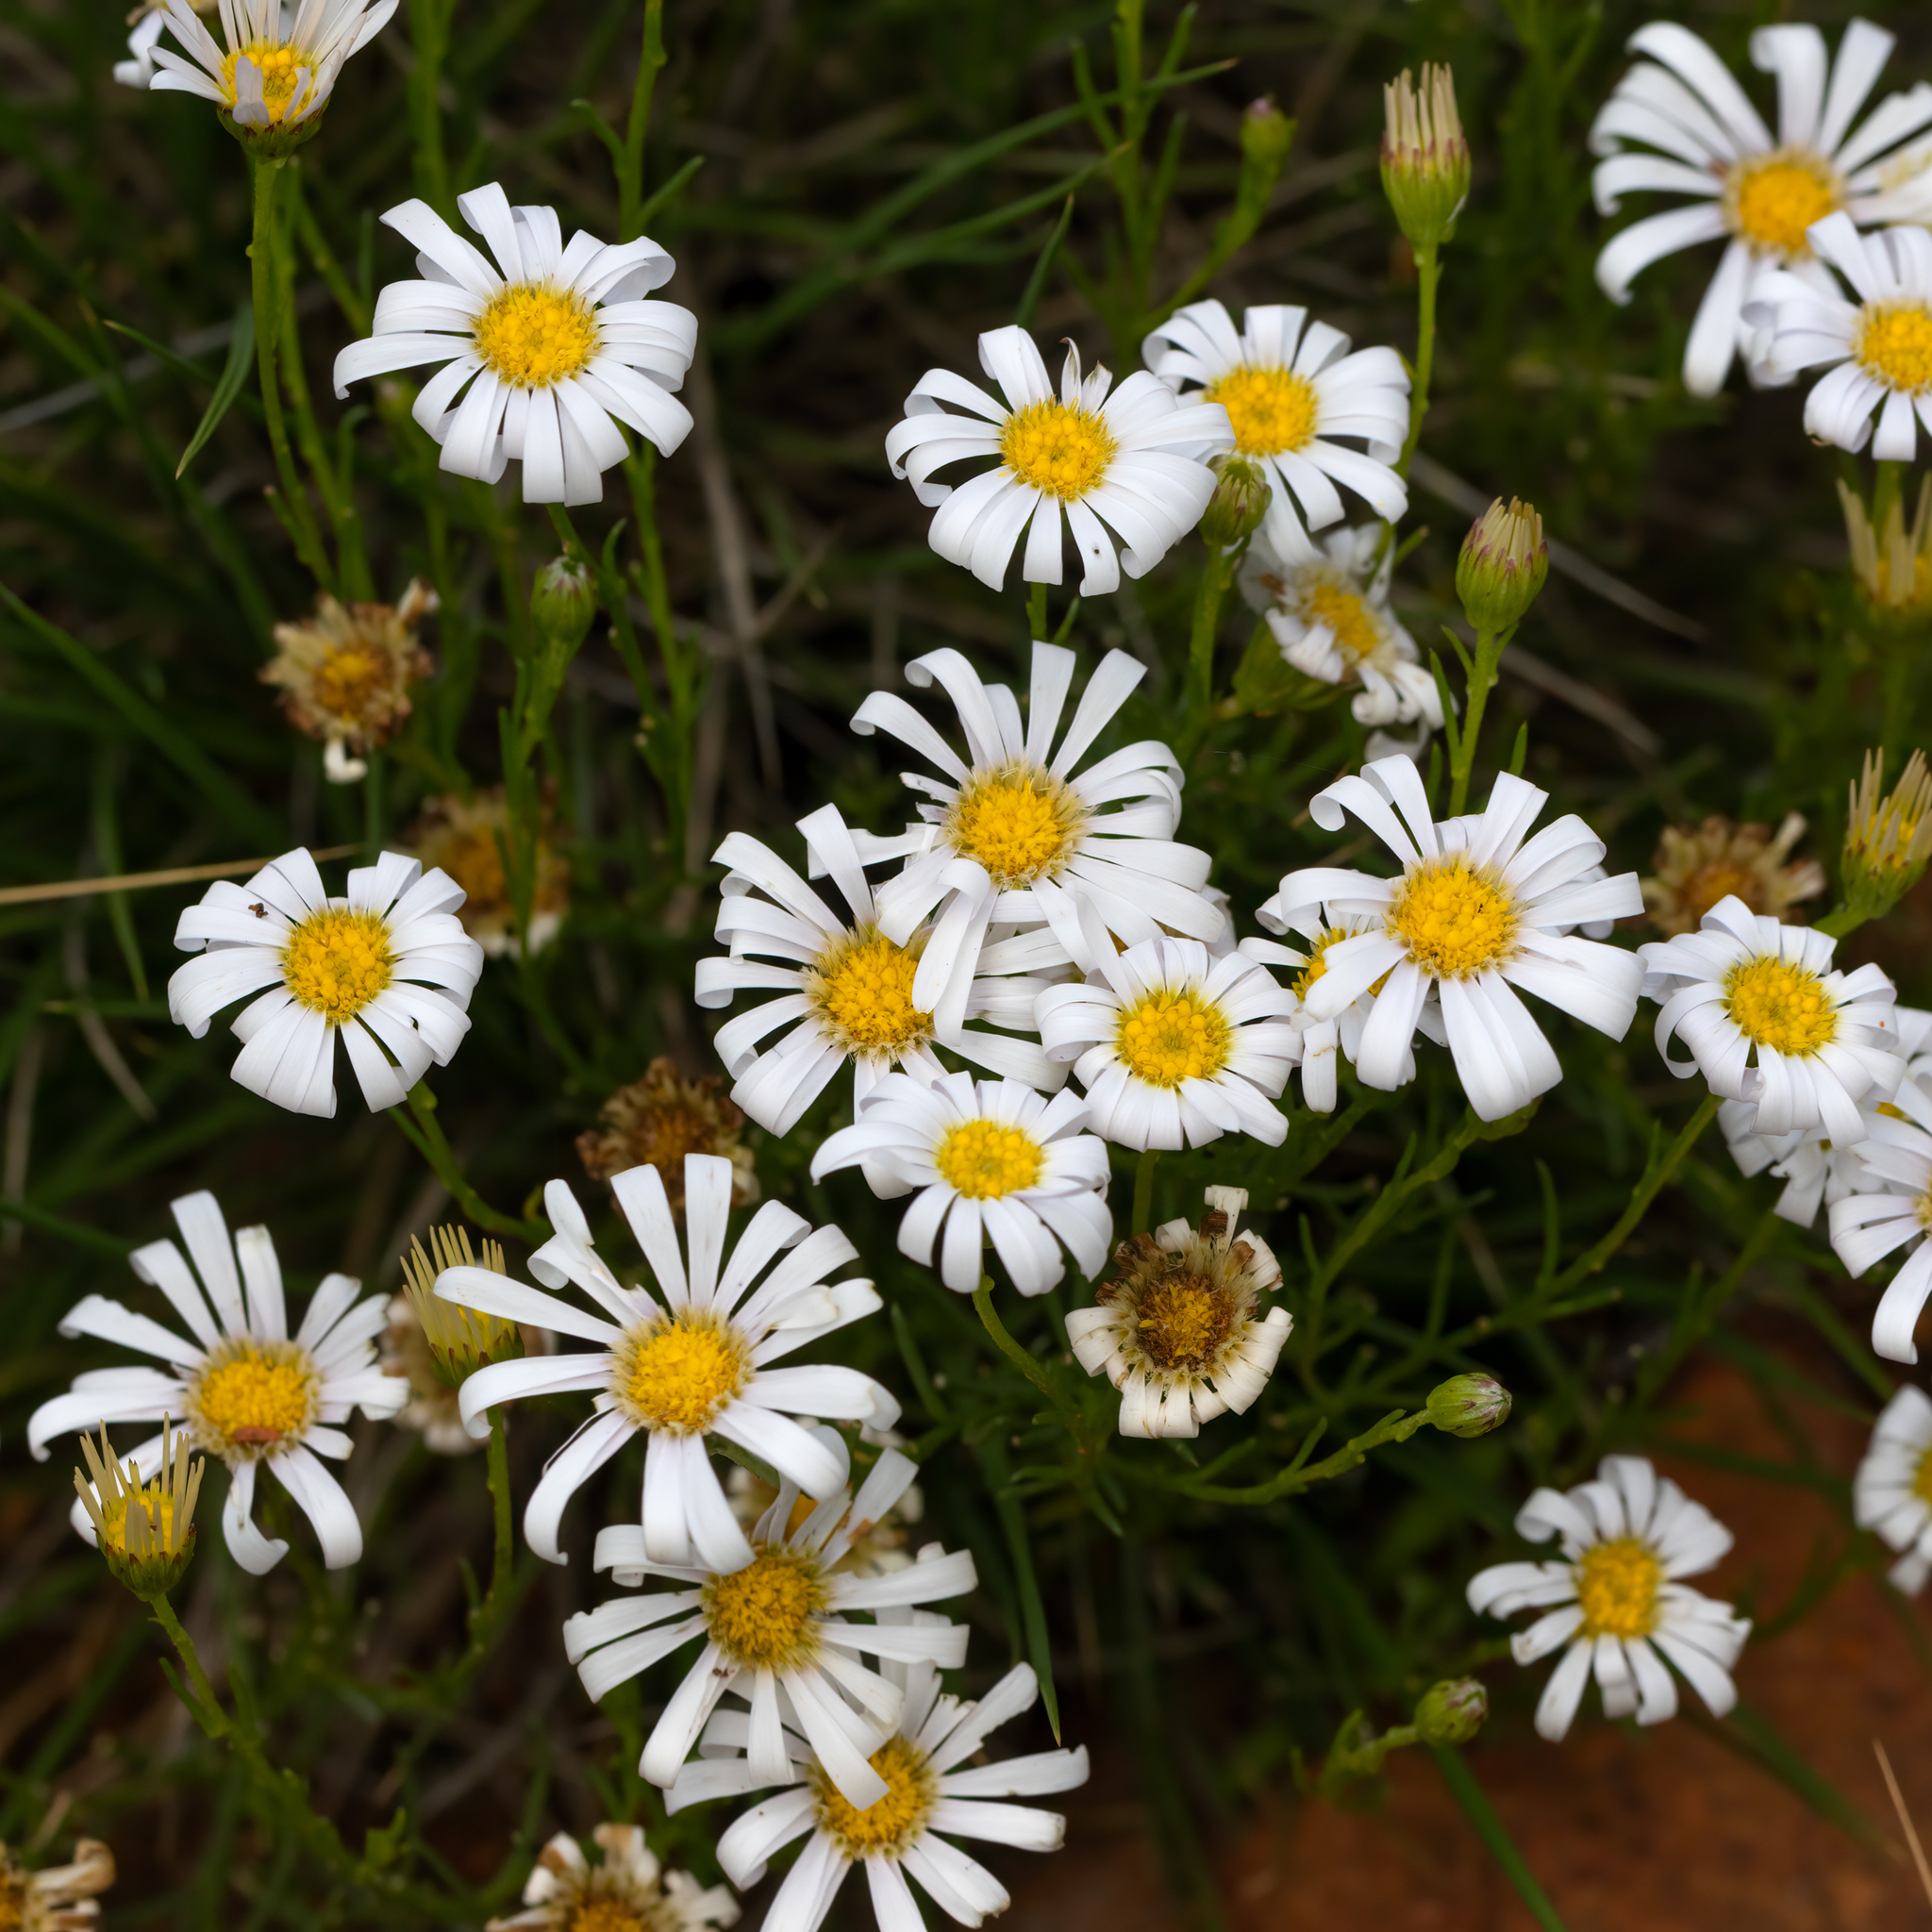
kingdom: Plantae
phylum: Tracheophyta
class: Magnoliopsida
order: Asterales
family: Asteraceae
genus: Minuria
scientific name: Minuria leptophylla
